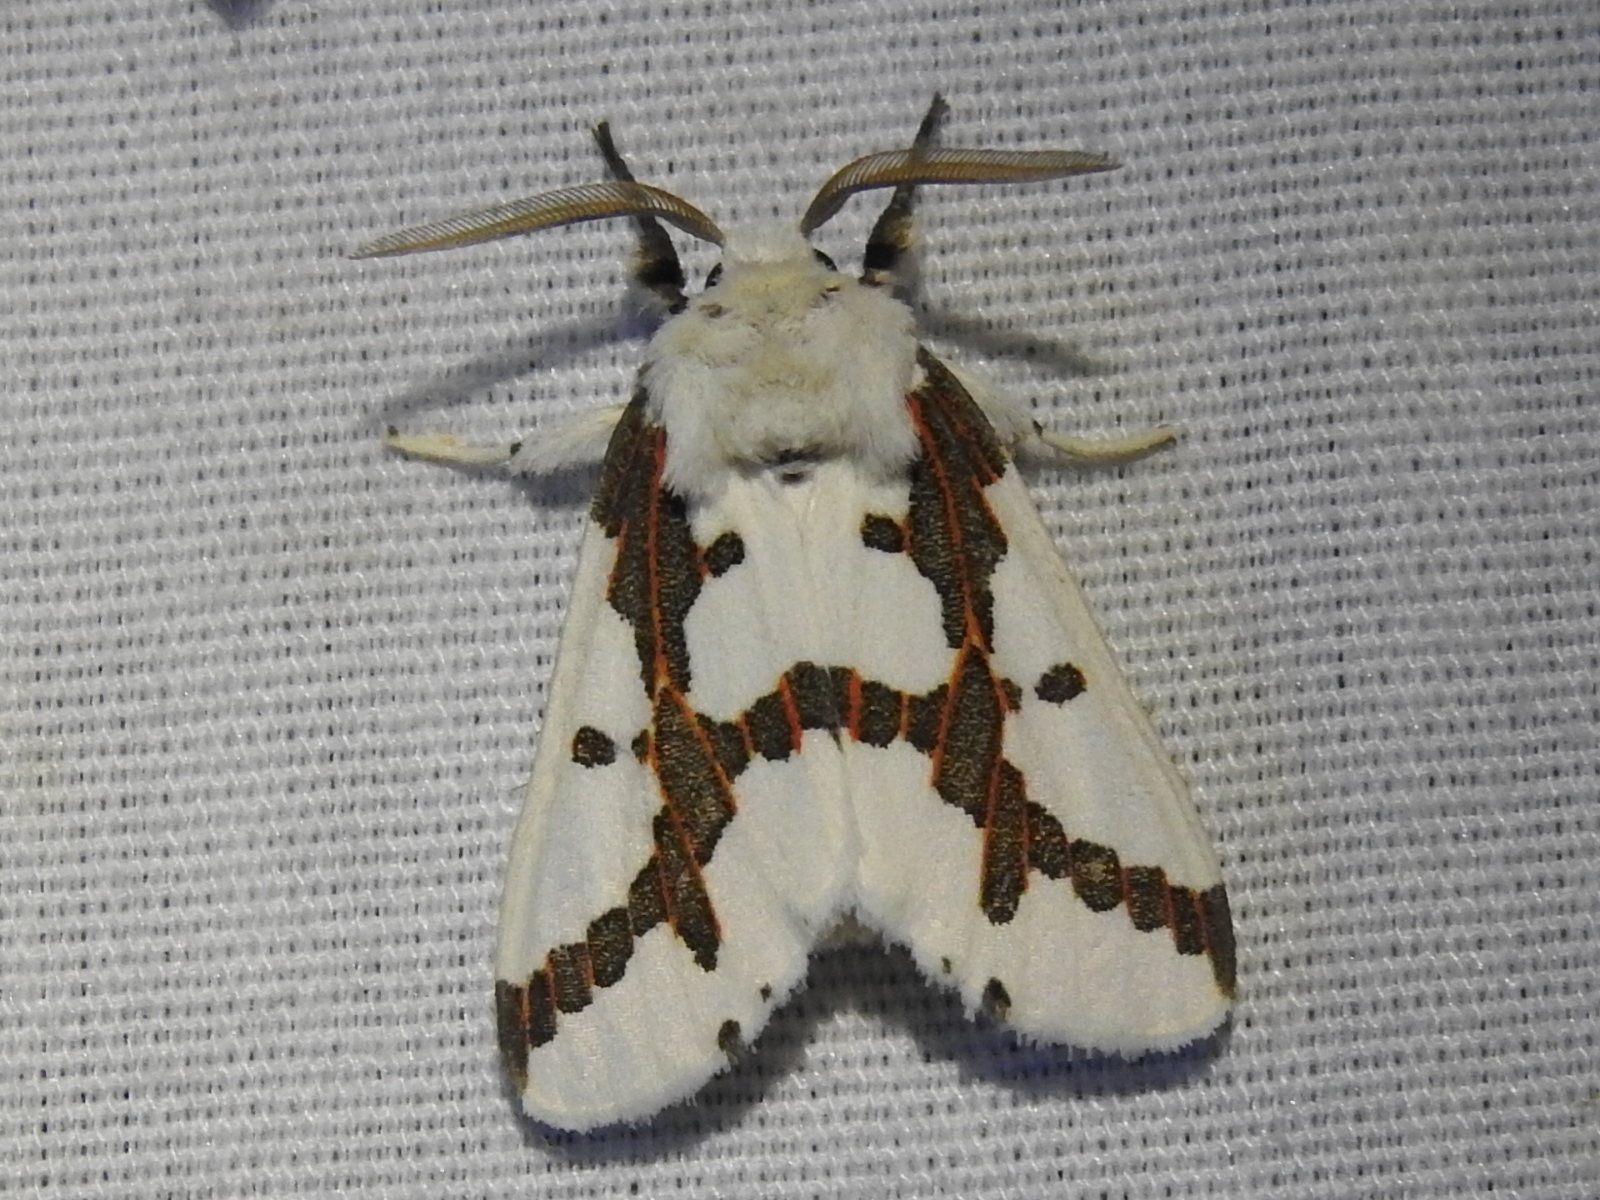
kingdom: Animalia
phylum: Arthropoda
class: Insecta
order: Lepidoptera
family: Erebidae
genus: Euerythra
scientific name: Euerythra phasma
